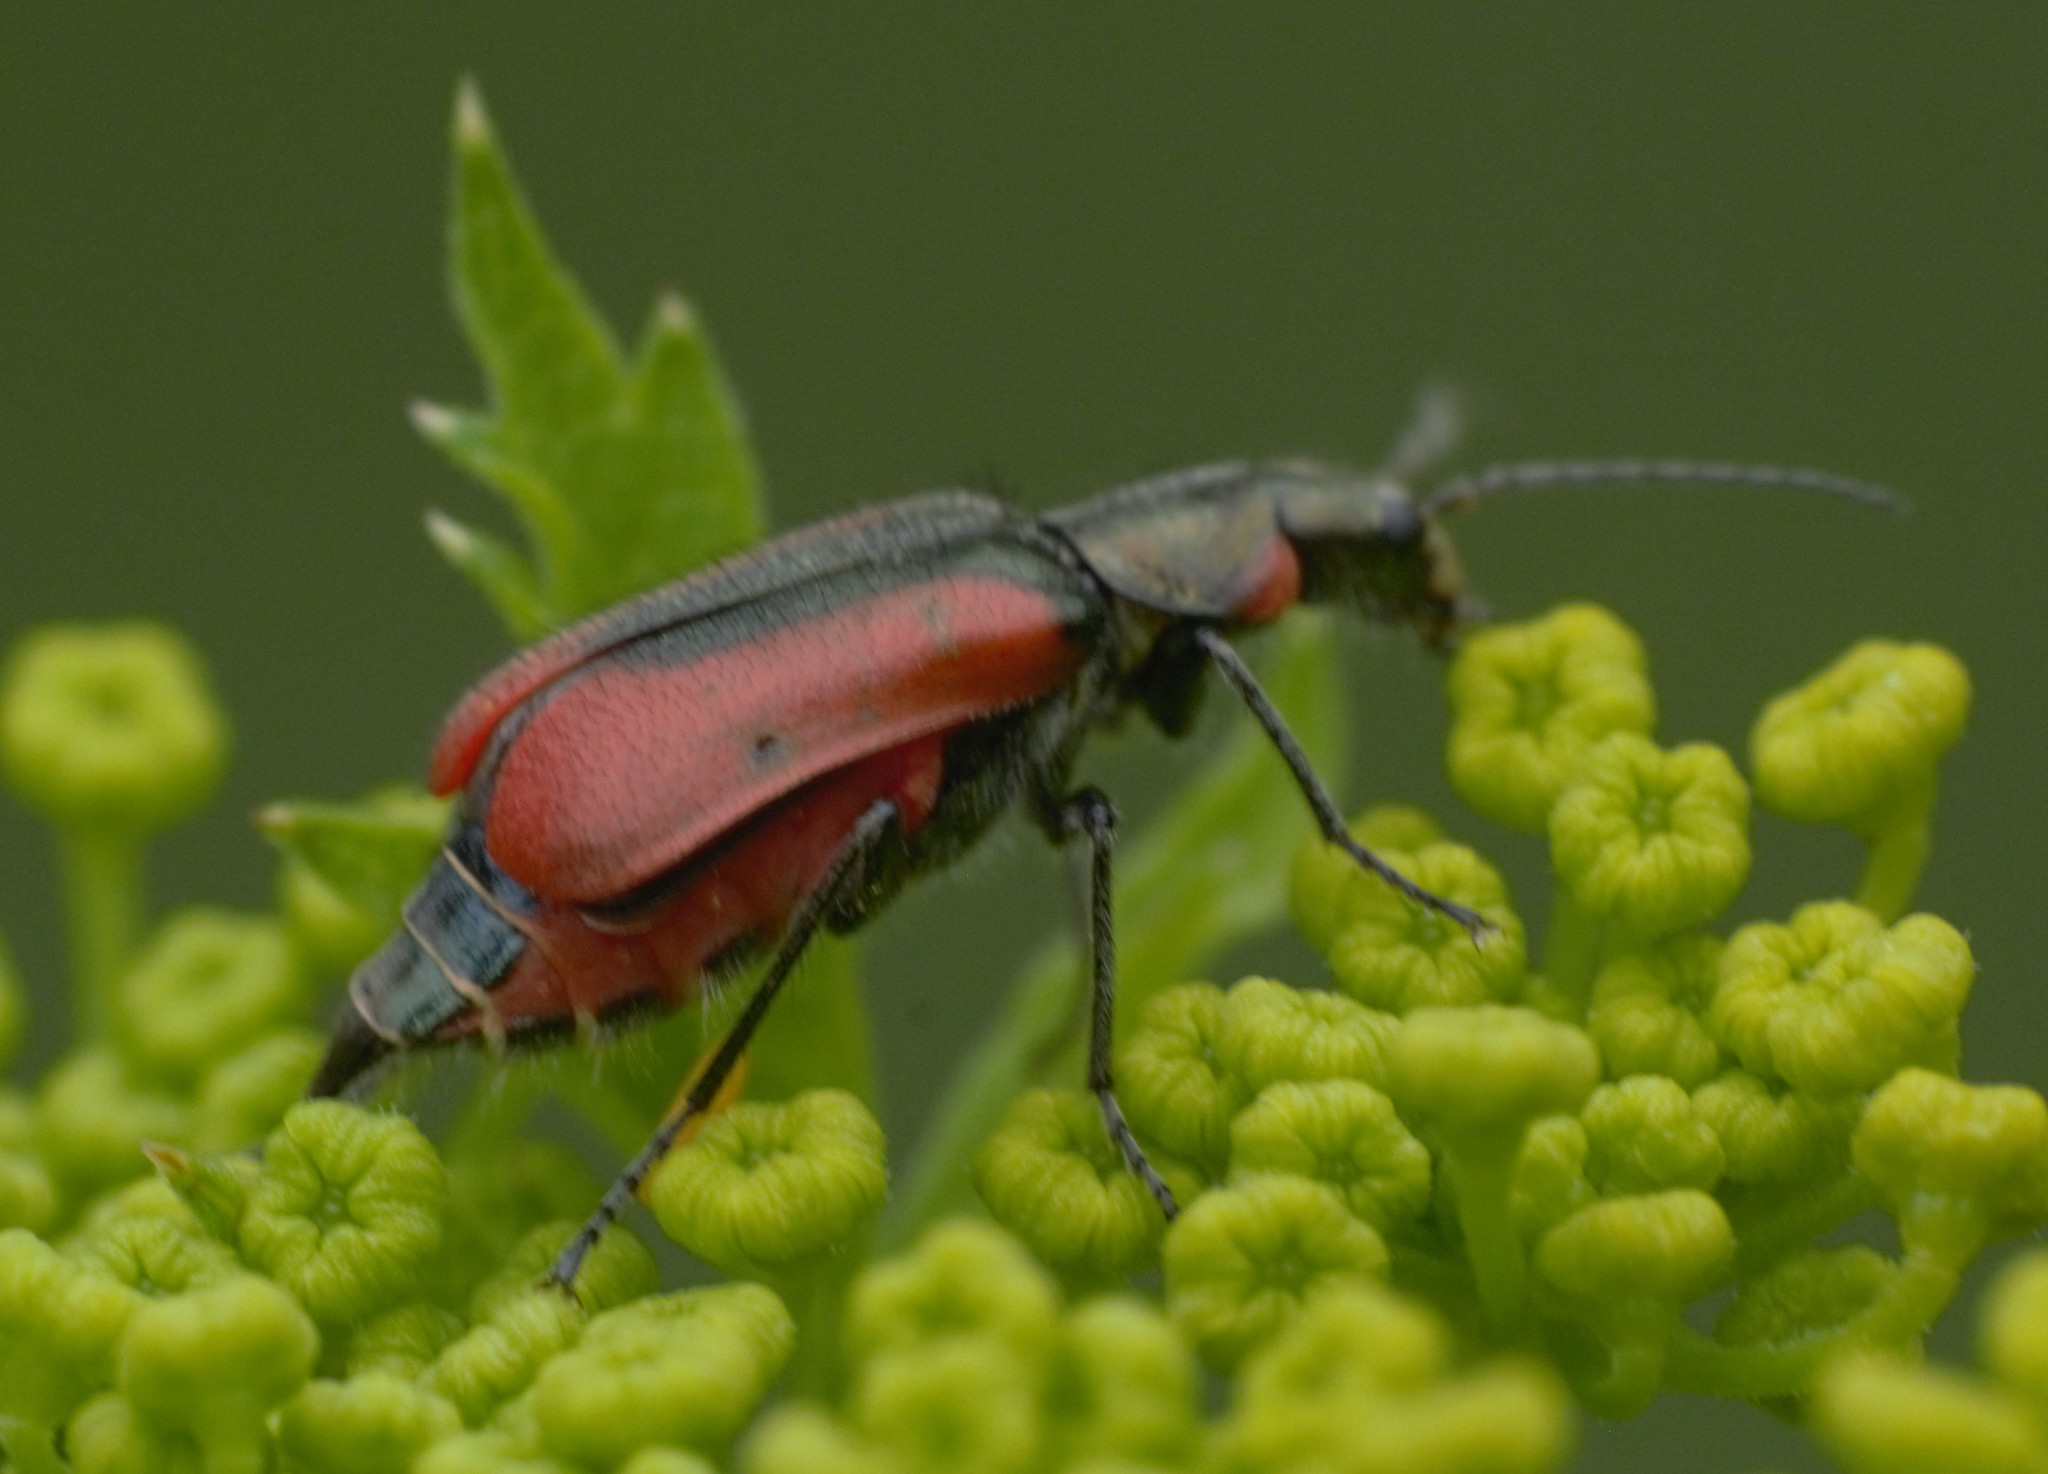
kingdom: Animalia
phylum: Arthropoda
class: Insecta
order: Coleoptera
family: Melyridae
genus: Malachius
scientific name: Malachius aeneus
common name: Scarlet malachite beetle
